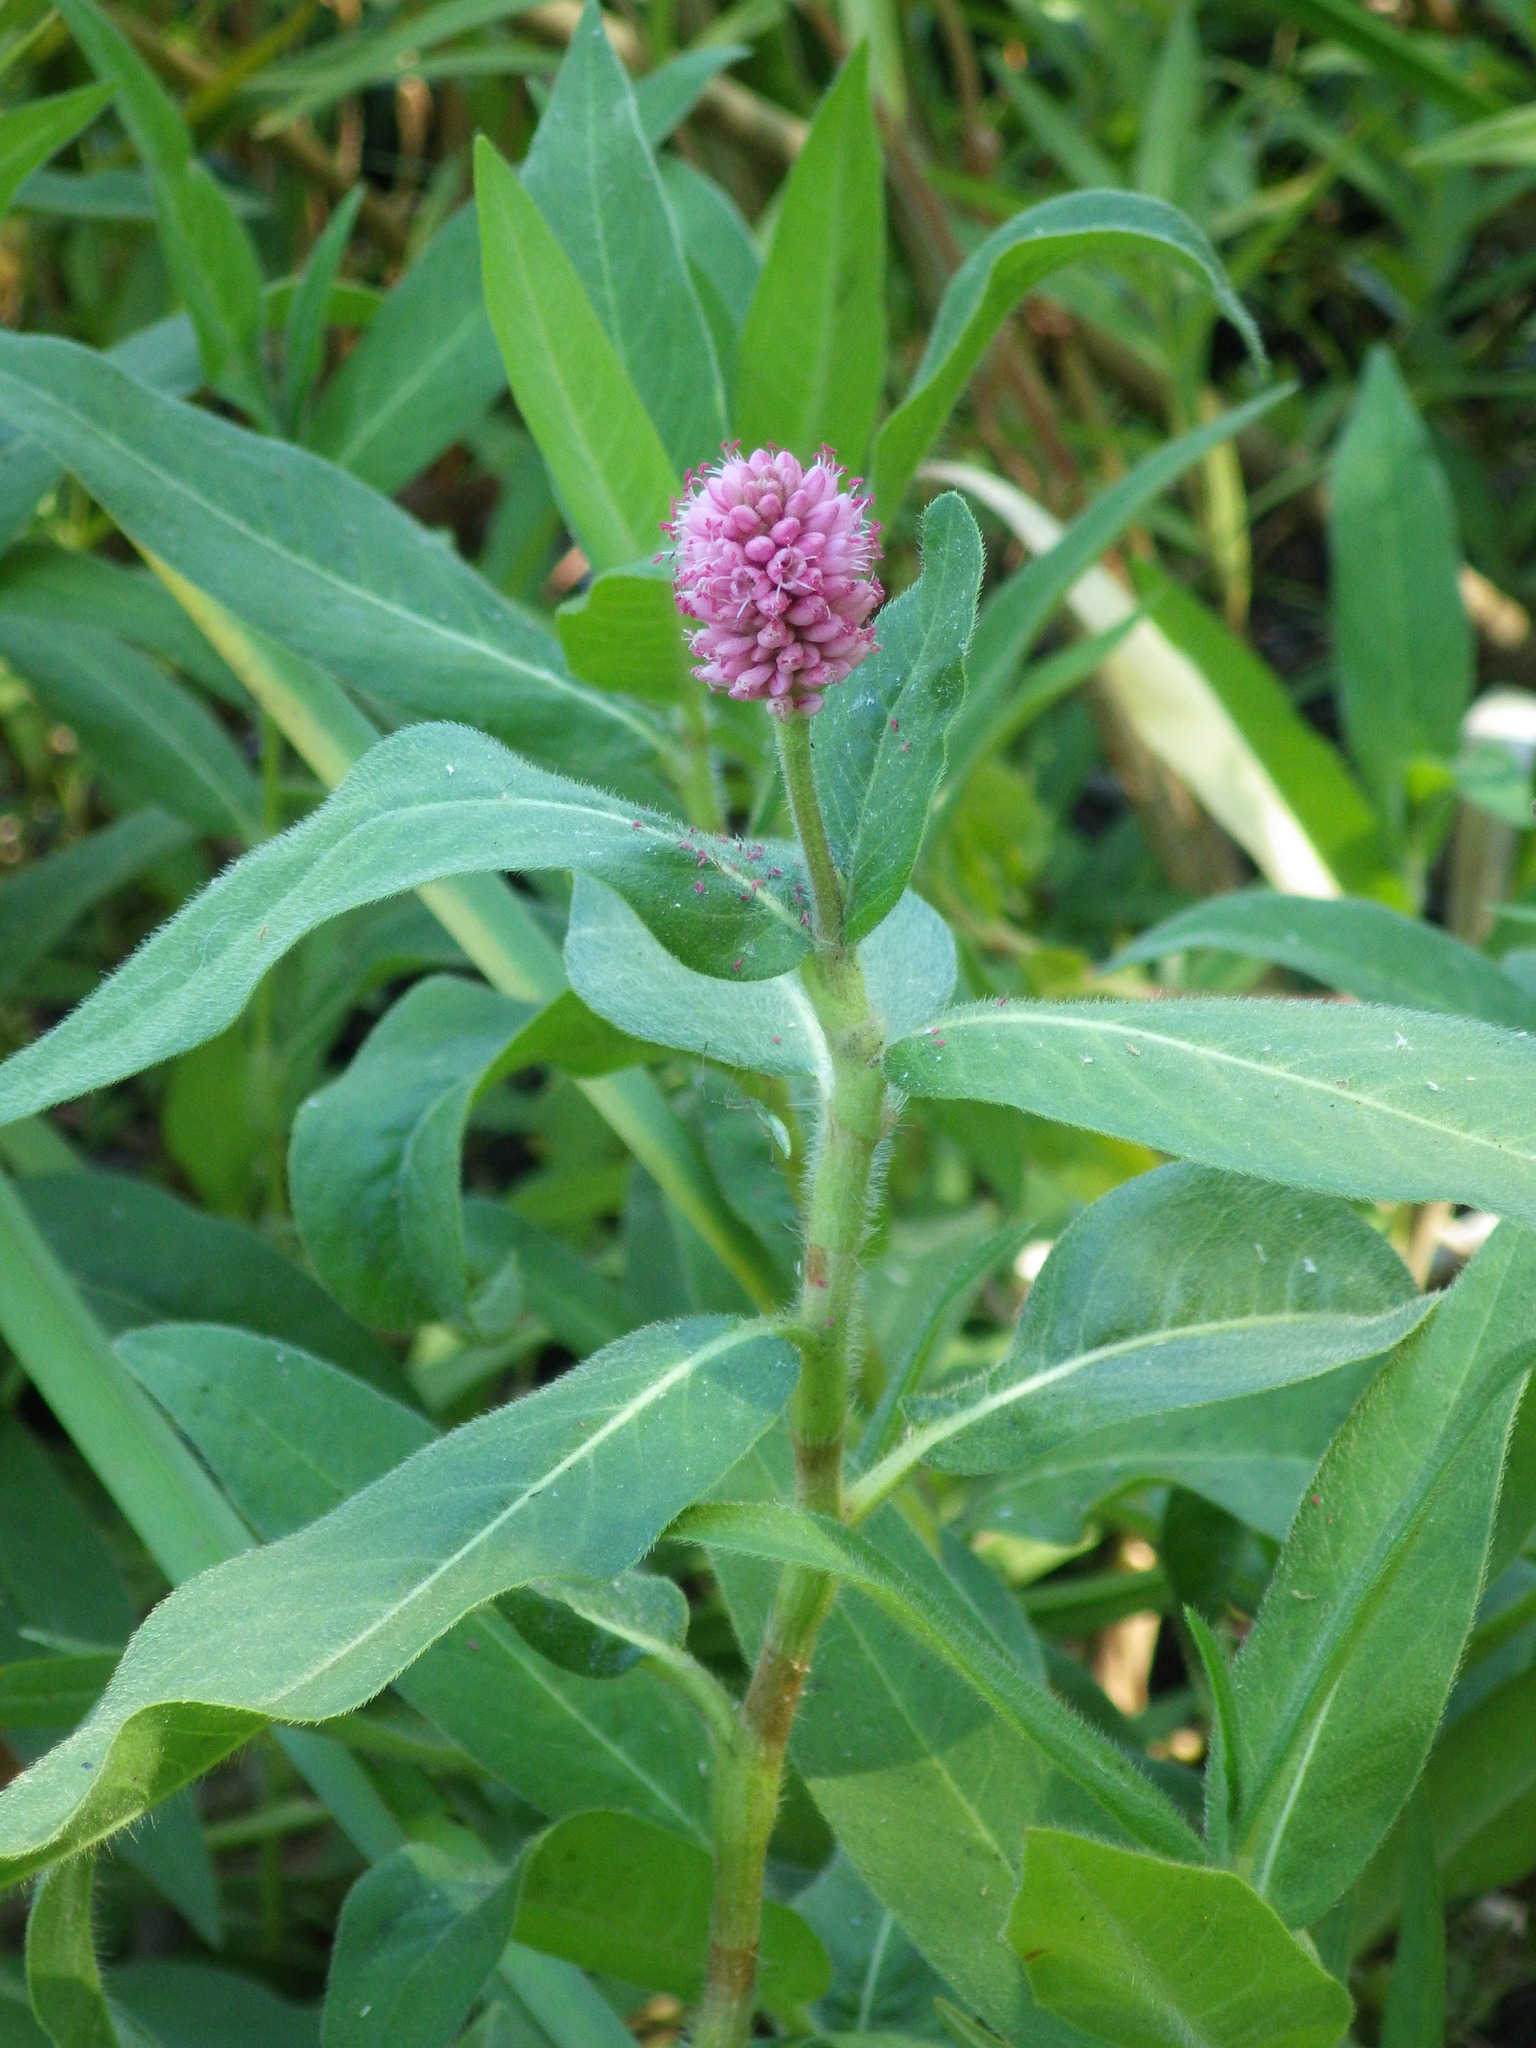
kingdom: Plantae
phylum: Tracheophyta
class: Magnoliopsida
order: Caryophyllales
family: Polygonaceae
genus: Persicaria
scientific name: Persicaria amphibia
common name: Amphibious bistort
